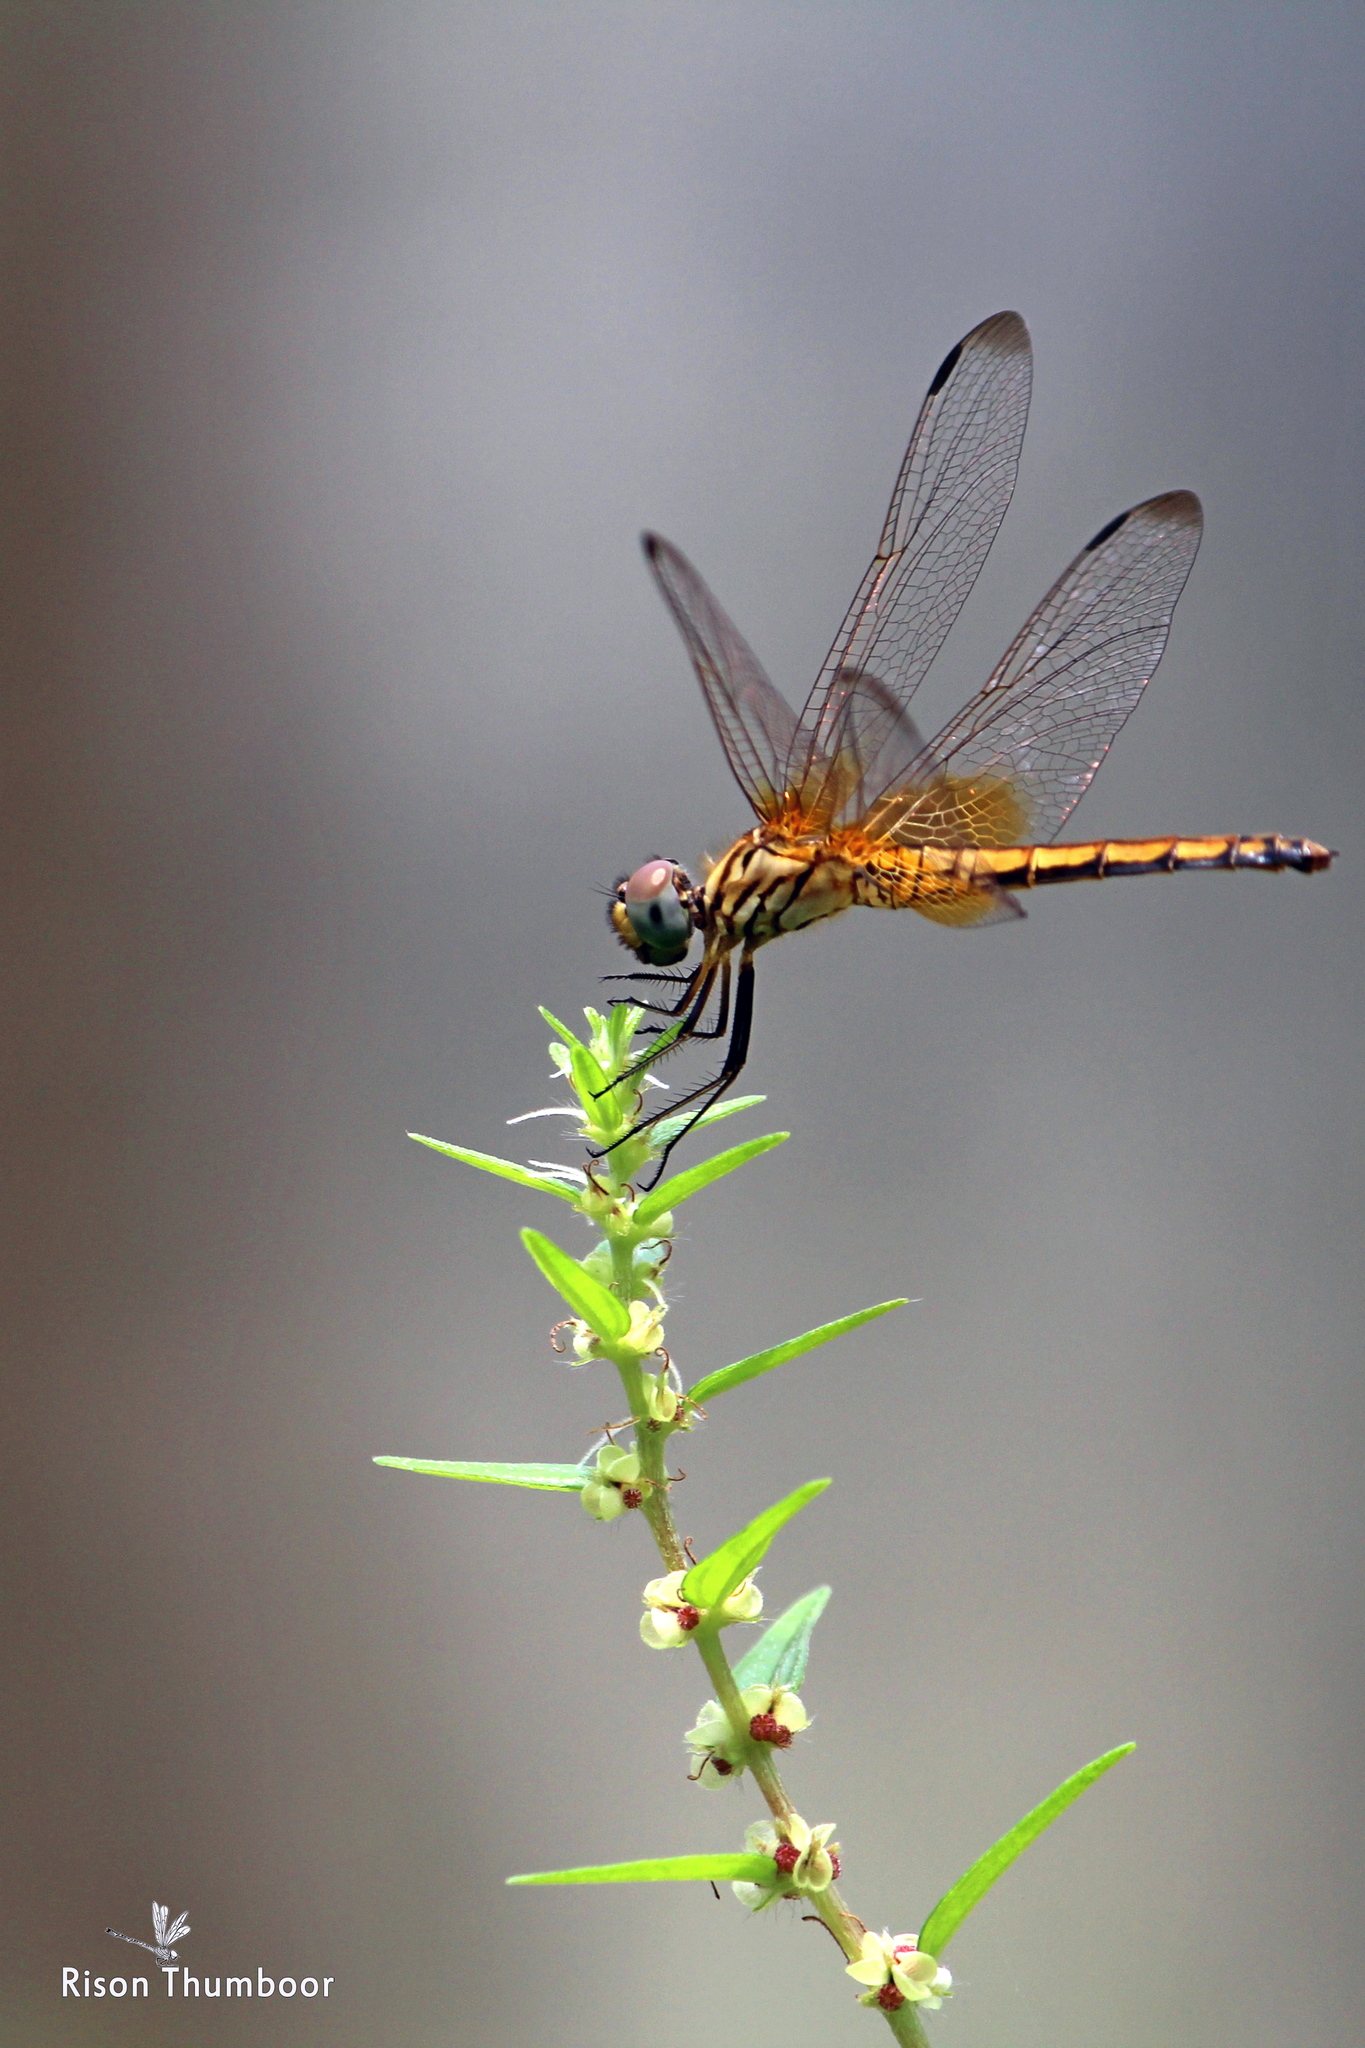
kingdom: Animalia
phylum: Arthropoda
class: Insecta
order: Odonata
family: Libellulidae
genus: Trithemis
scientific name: Trithemis aurora
